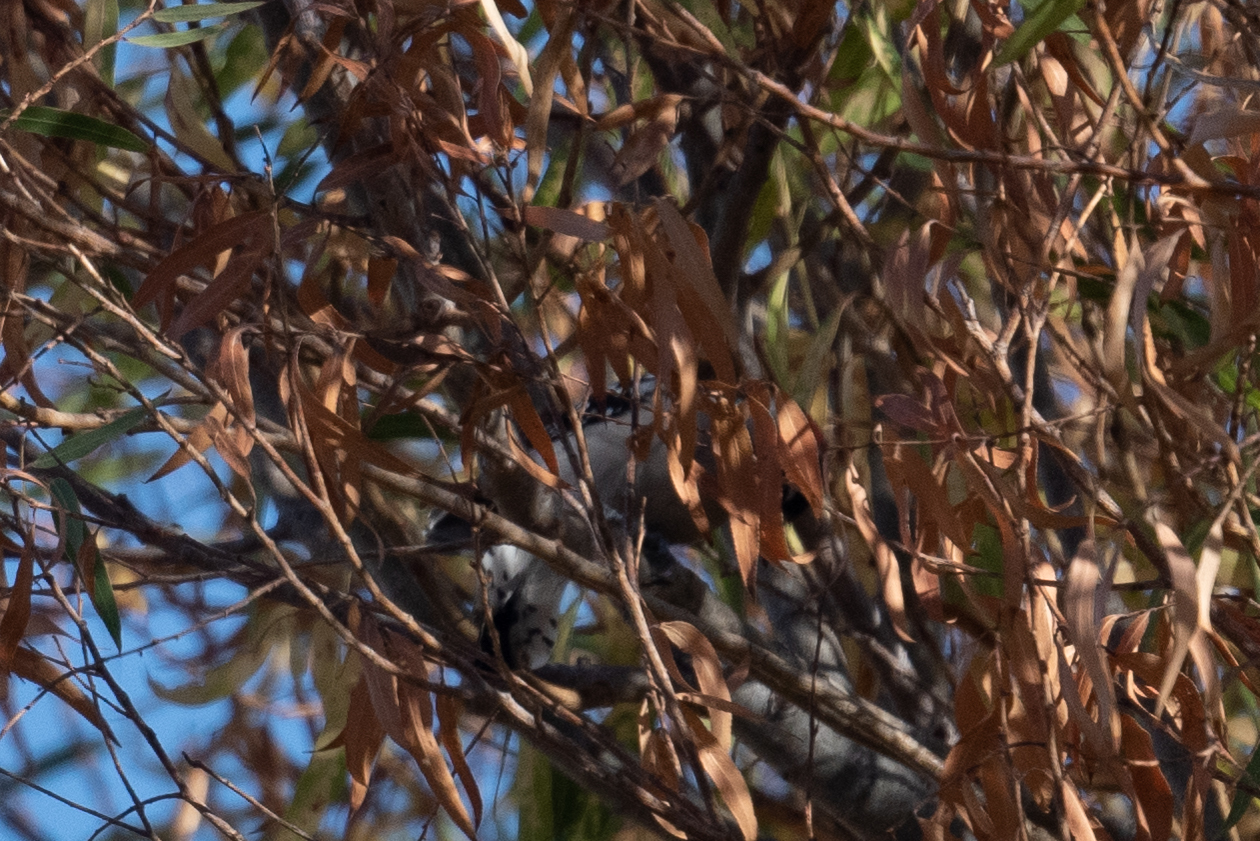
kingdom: Animalia
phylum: Chordata
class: Aves
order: Piciformes
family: Picidae
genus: Dryobates
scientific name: Dryobates pubescens
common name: Downy woodpecker
